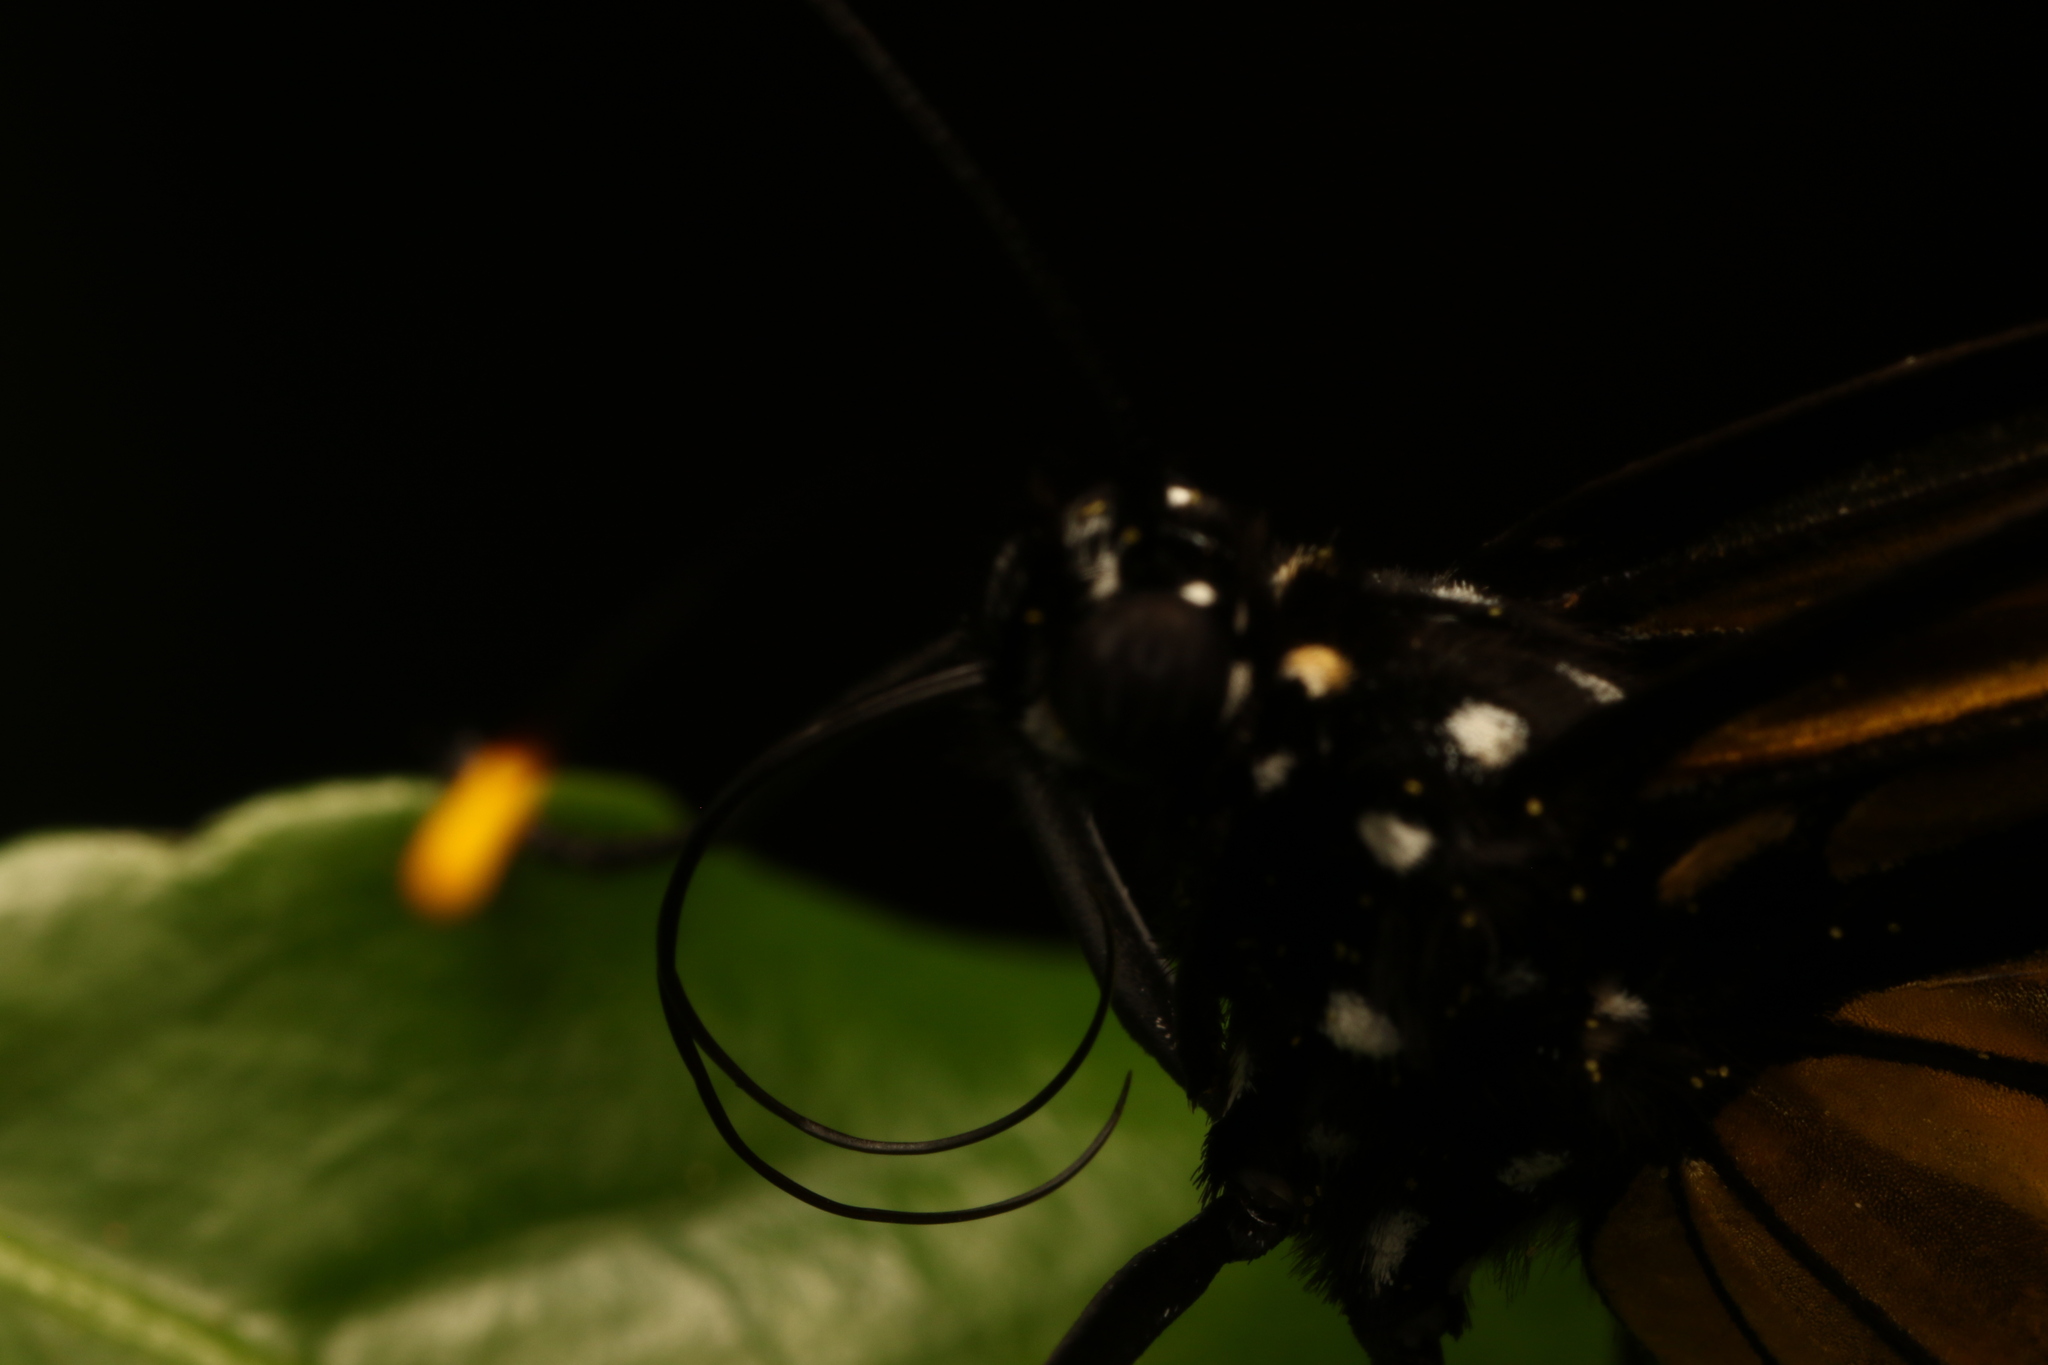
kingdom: Animalia
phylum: Arthropoda
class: Insecta
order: Lepidoptera
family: Nymphalidae
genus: Methona
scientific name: Methona themisto
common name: Themisto amberwing
